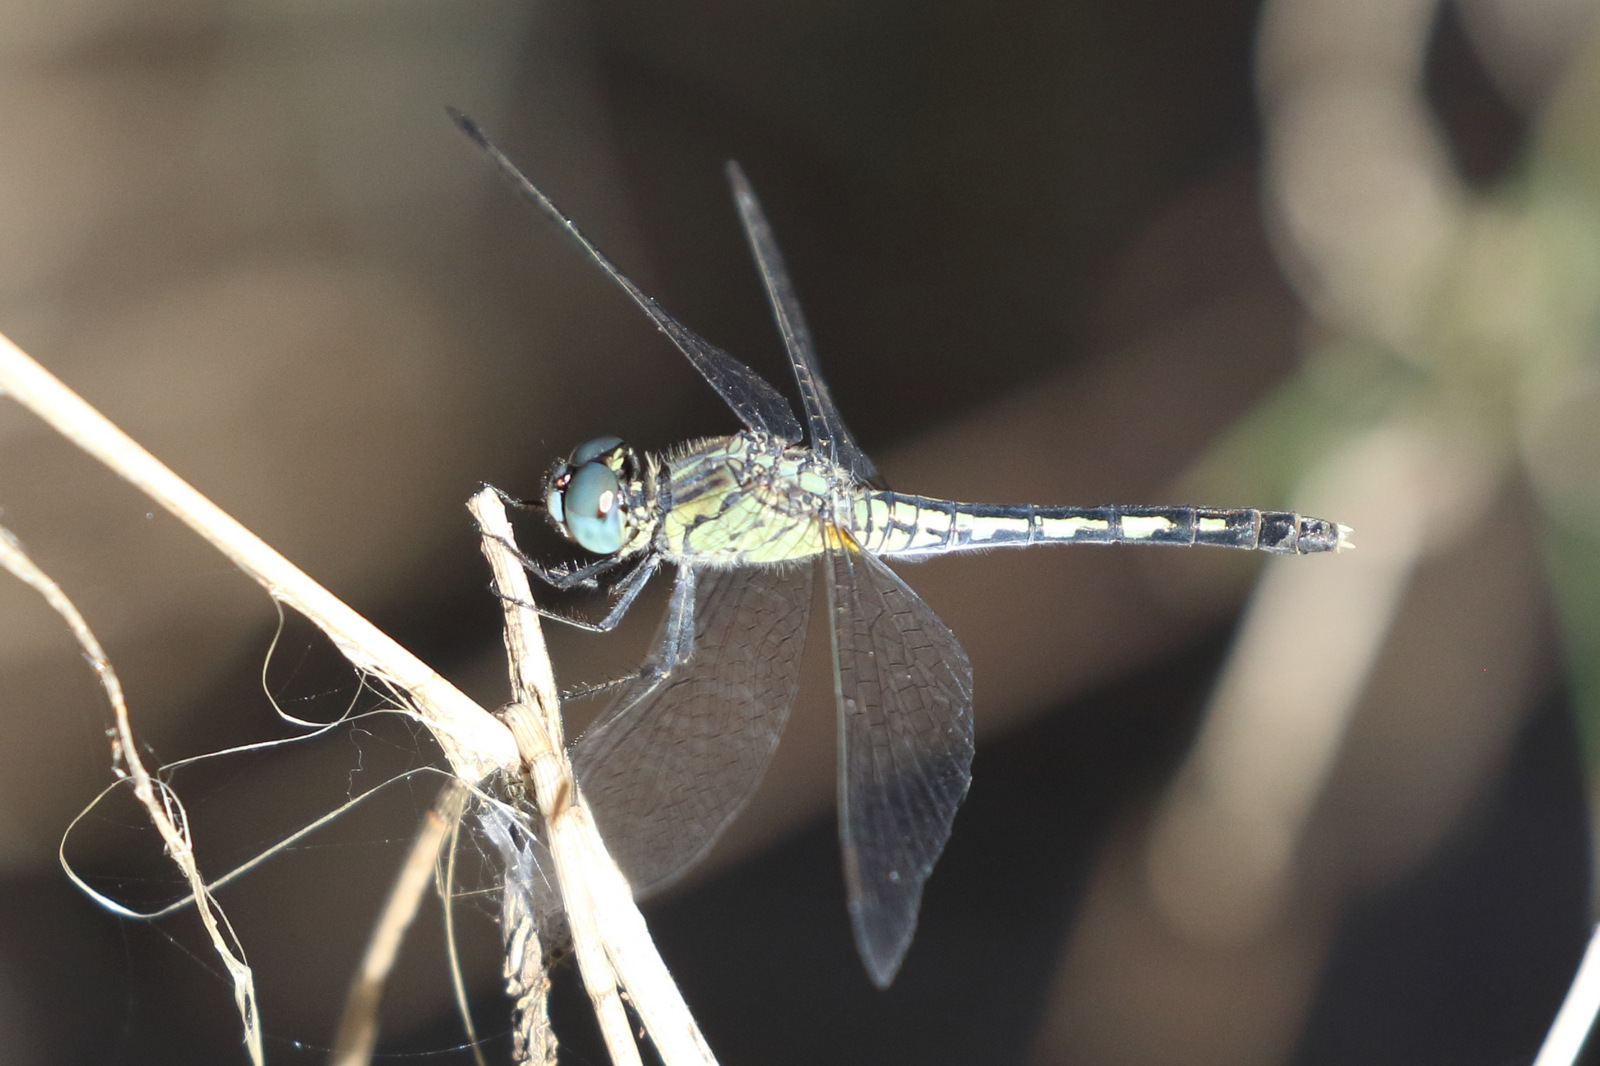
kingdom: Animalia
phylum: Arthropoda
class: Insecta
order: Odonata
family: Libellulidae
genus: Diplacodes
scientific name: Diplacodes trivialis
